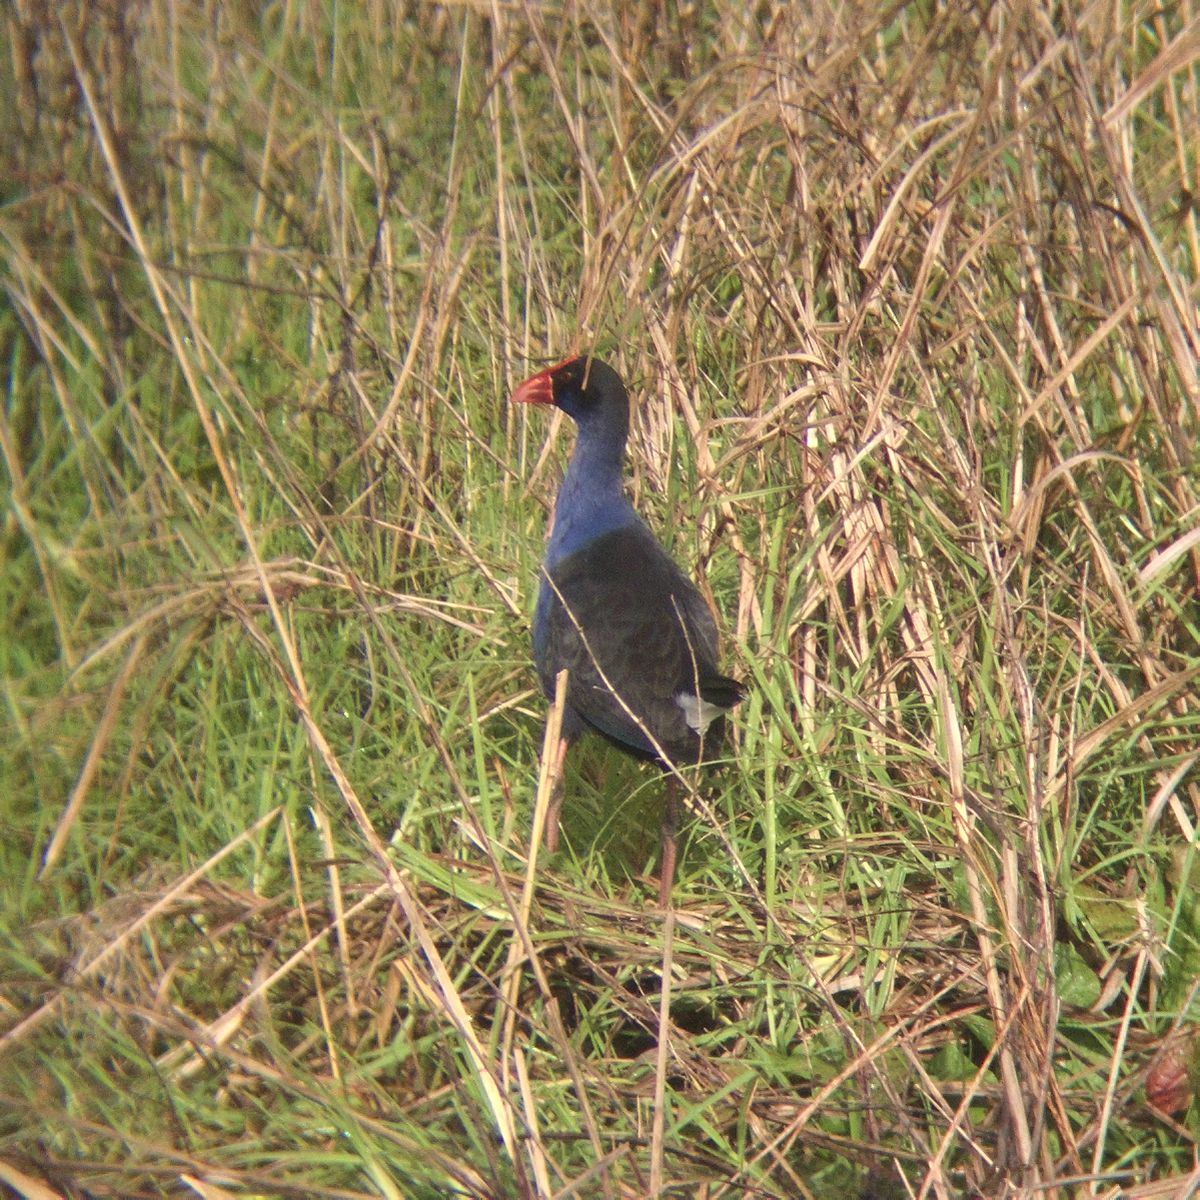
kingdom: Animalia
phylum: Chordata
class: Aves
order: Gruiformes
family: Rallidae
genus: Porphyrio
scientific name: Porphyrio melanotus
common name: Australasian swamphen
